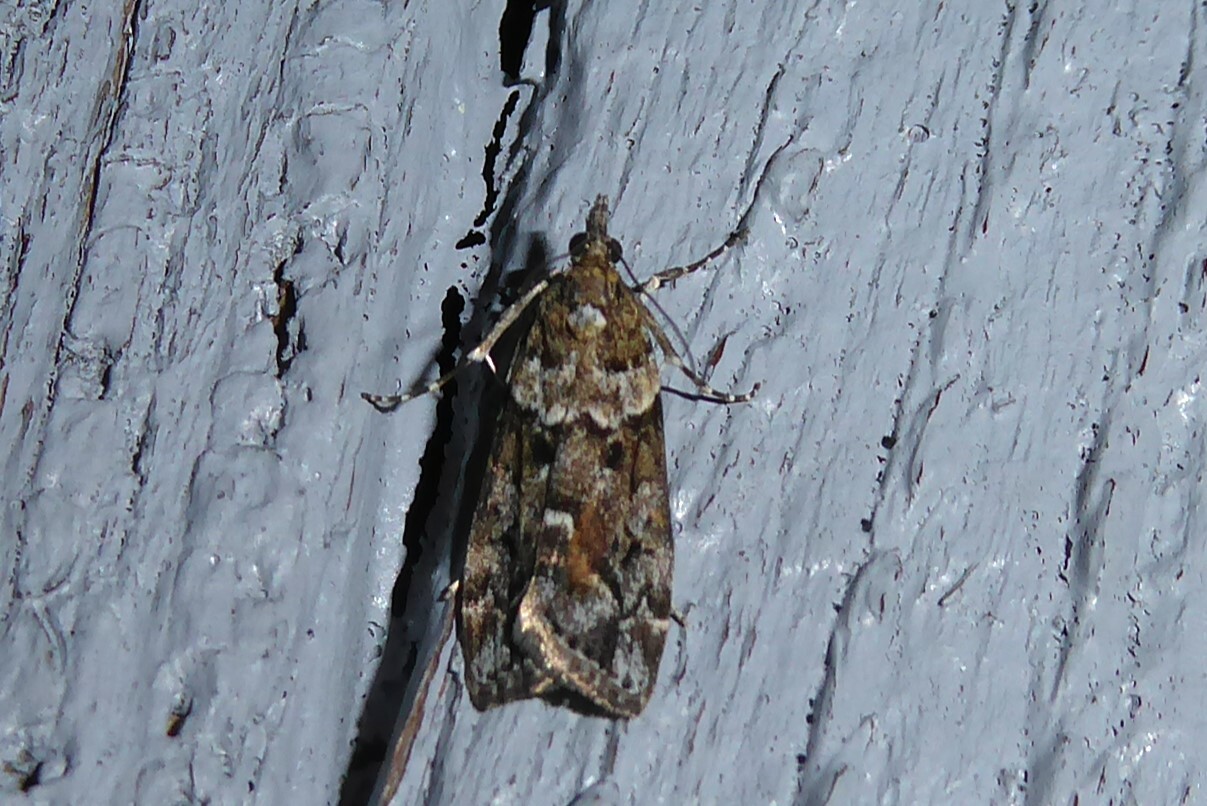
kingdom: Animalia
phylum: Arthropoda
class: Insecta
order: Lepidoptera
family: Crambidae
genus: Eudonia
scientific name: Eudonia submarginalis
